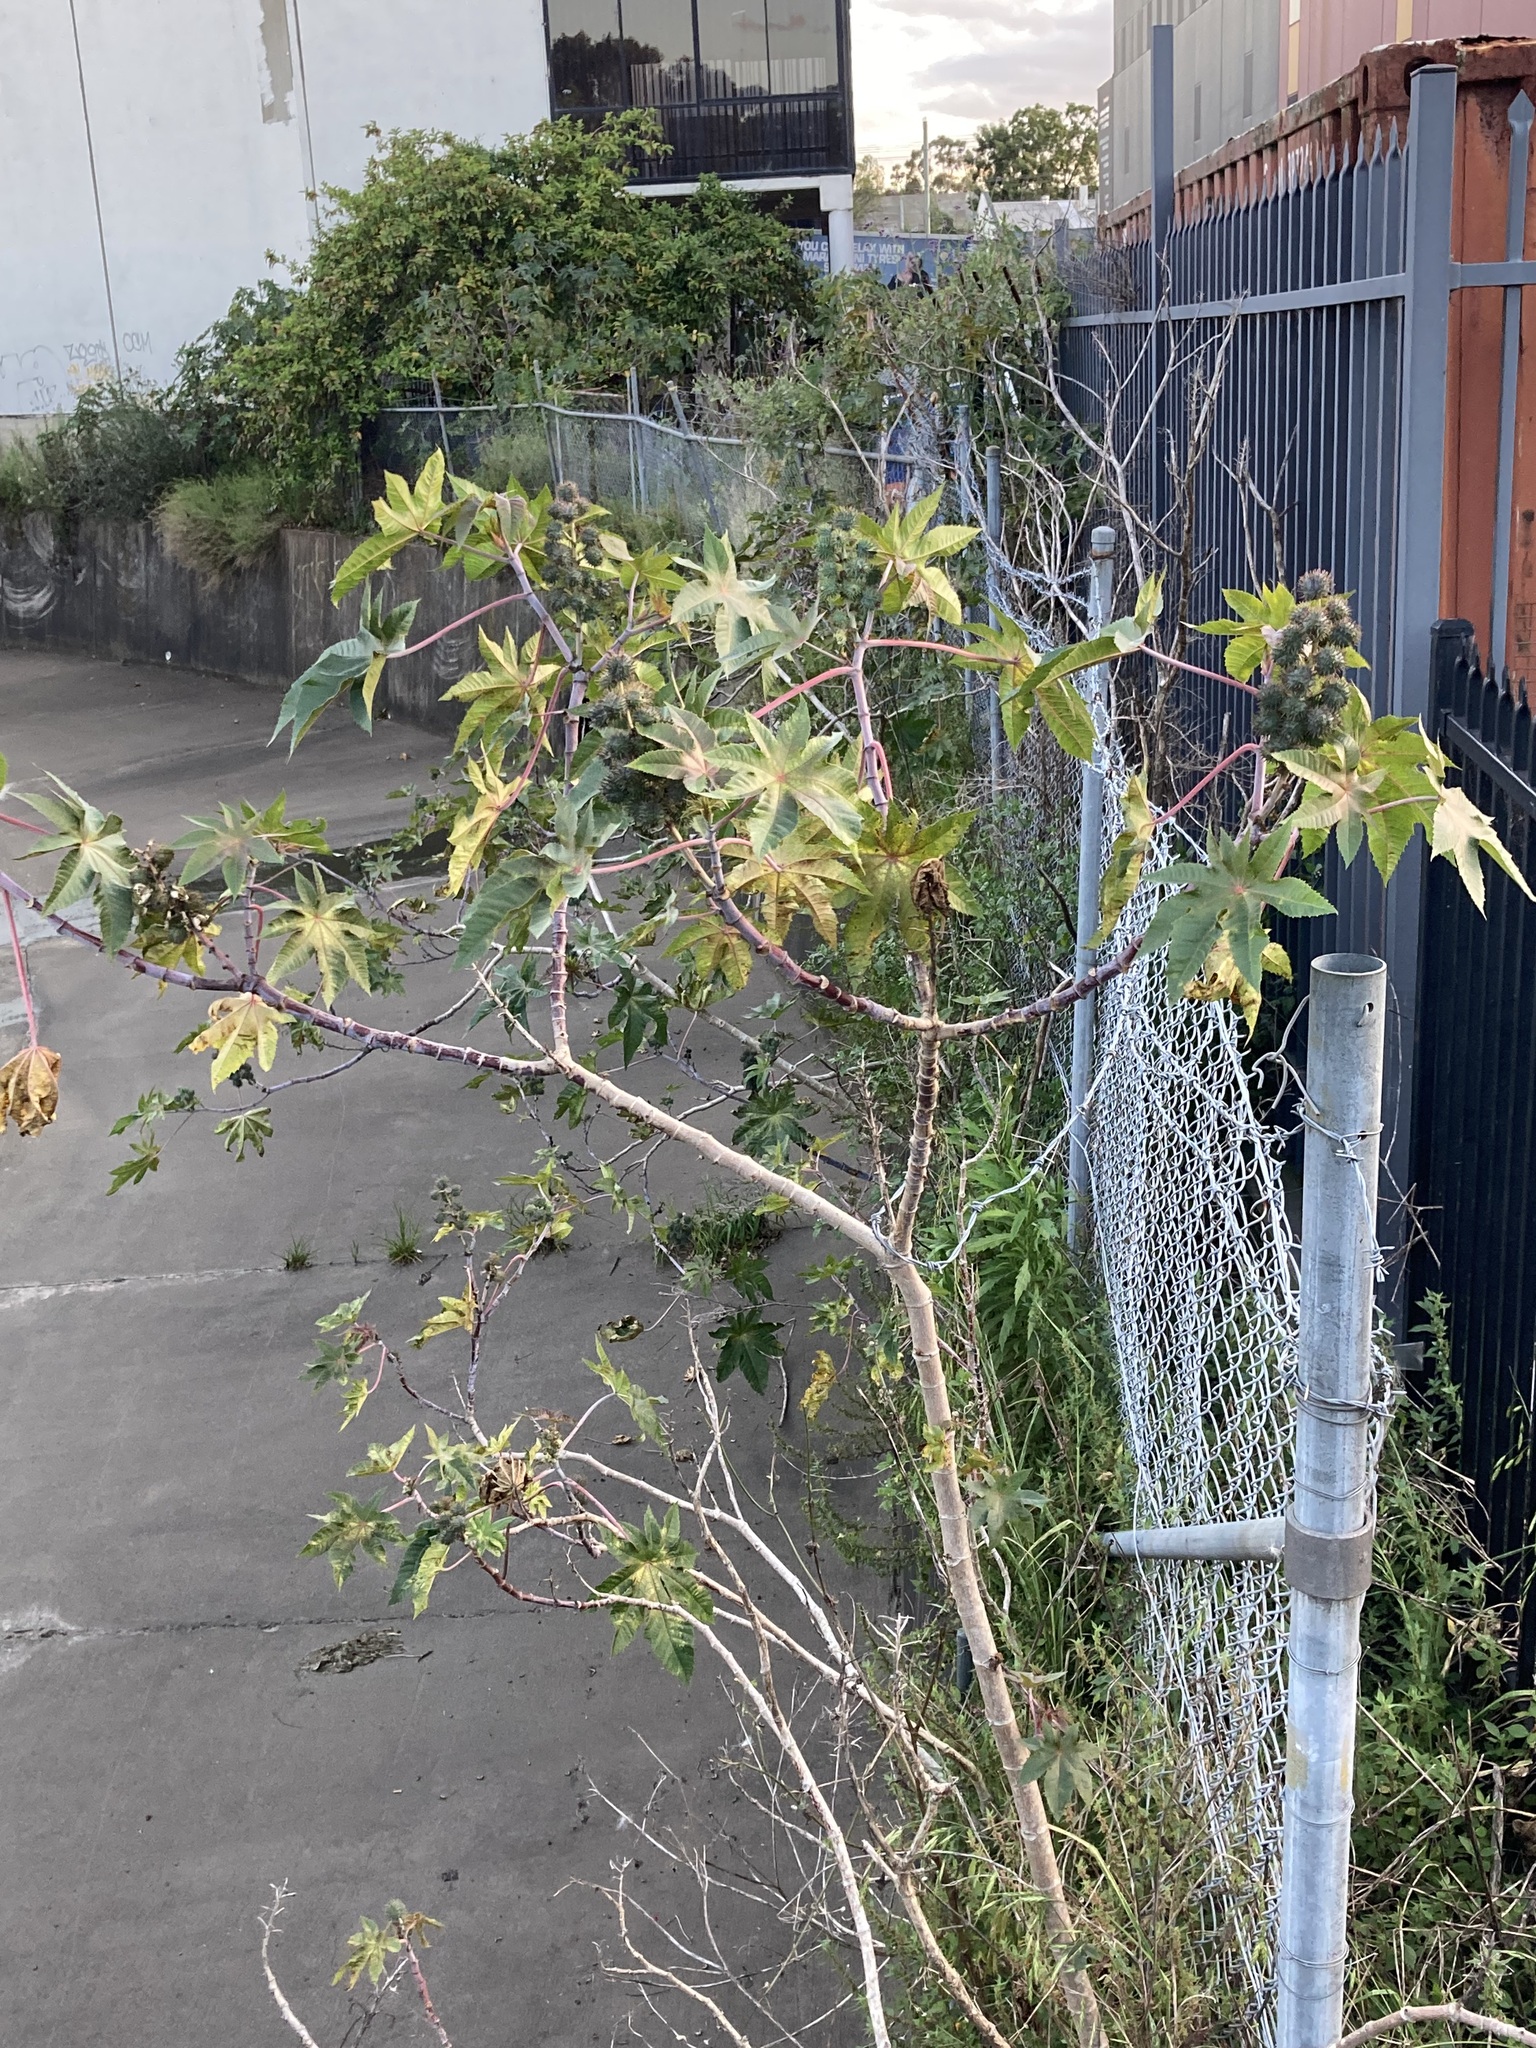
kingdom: Plantae
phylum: Tracheophyta
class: Magnoliopsida
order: Malpighiales
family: Euphorbiaceae
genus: Ricinus
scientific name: Ricinus communis
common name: Castor-oil-plant
